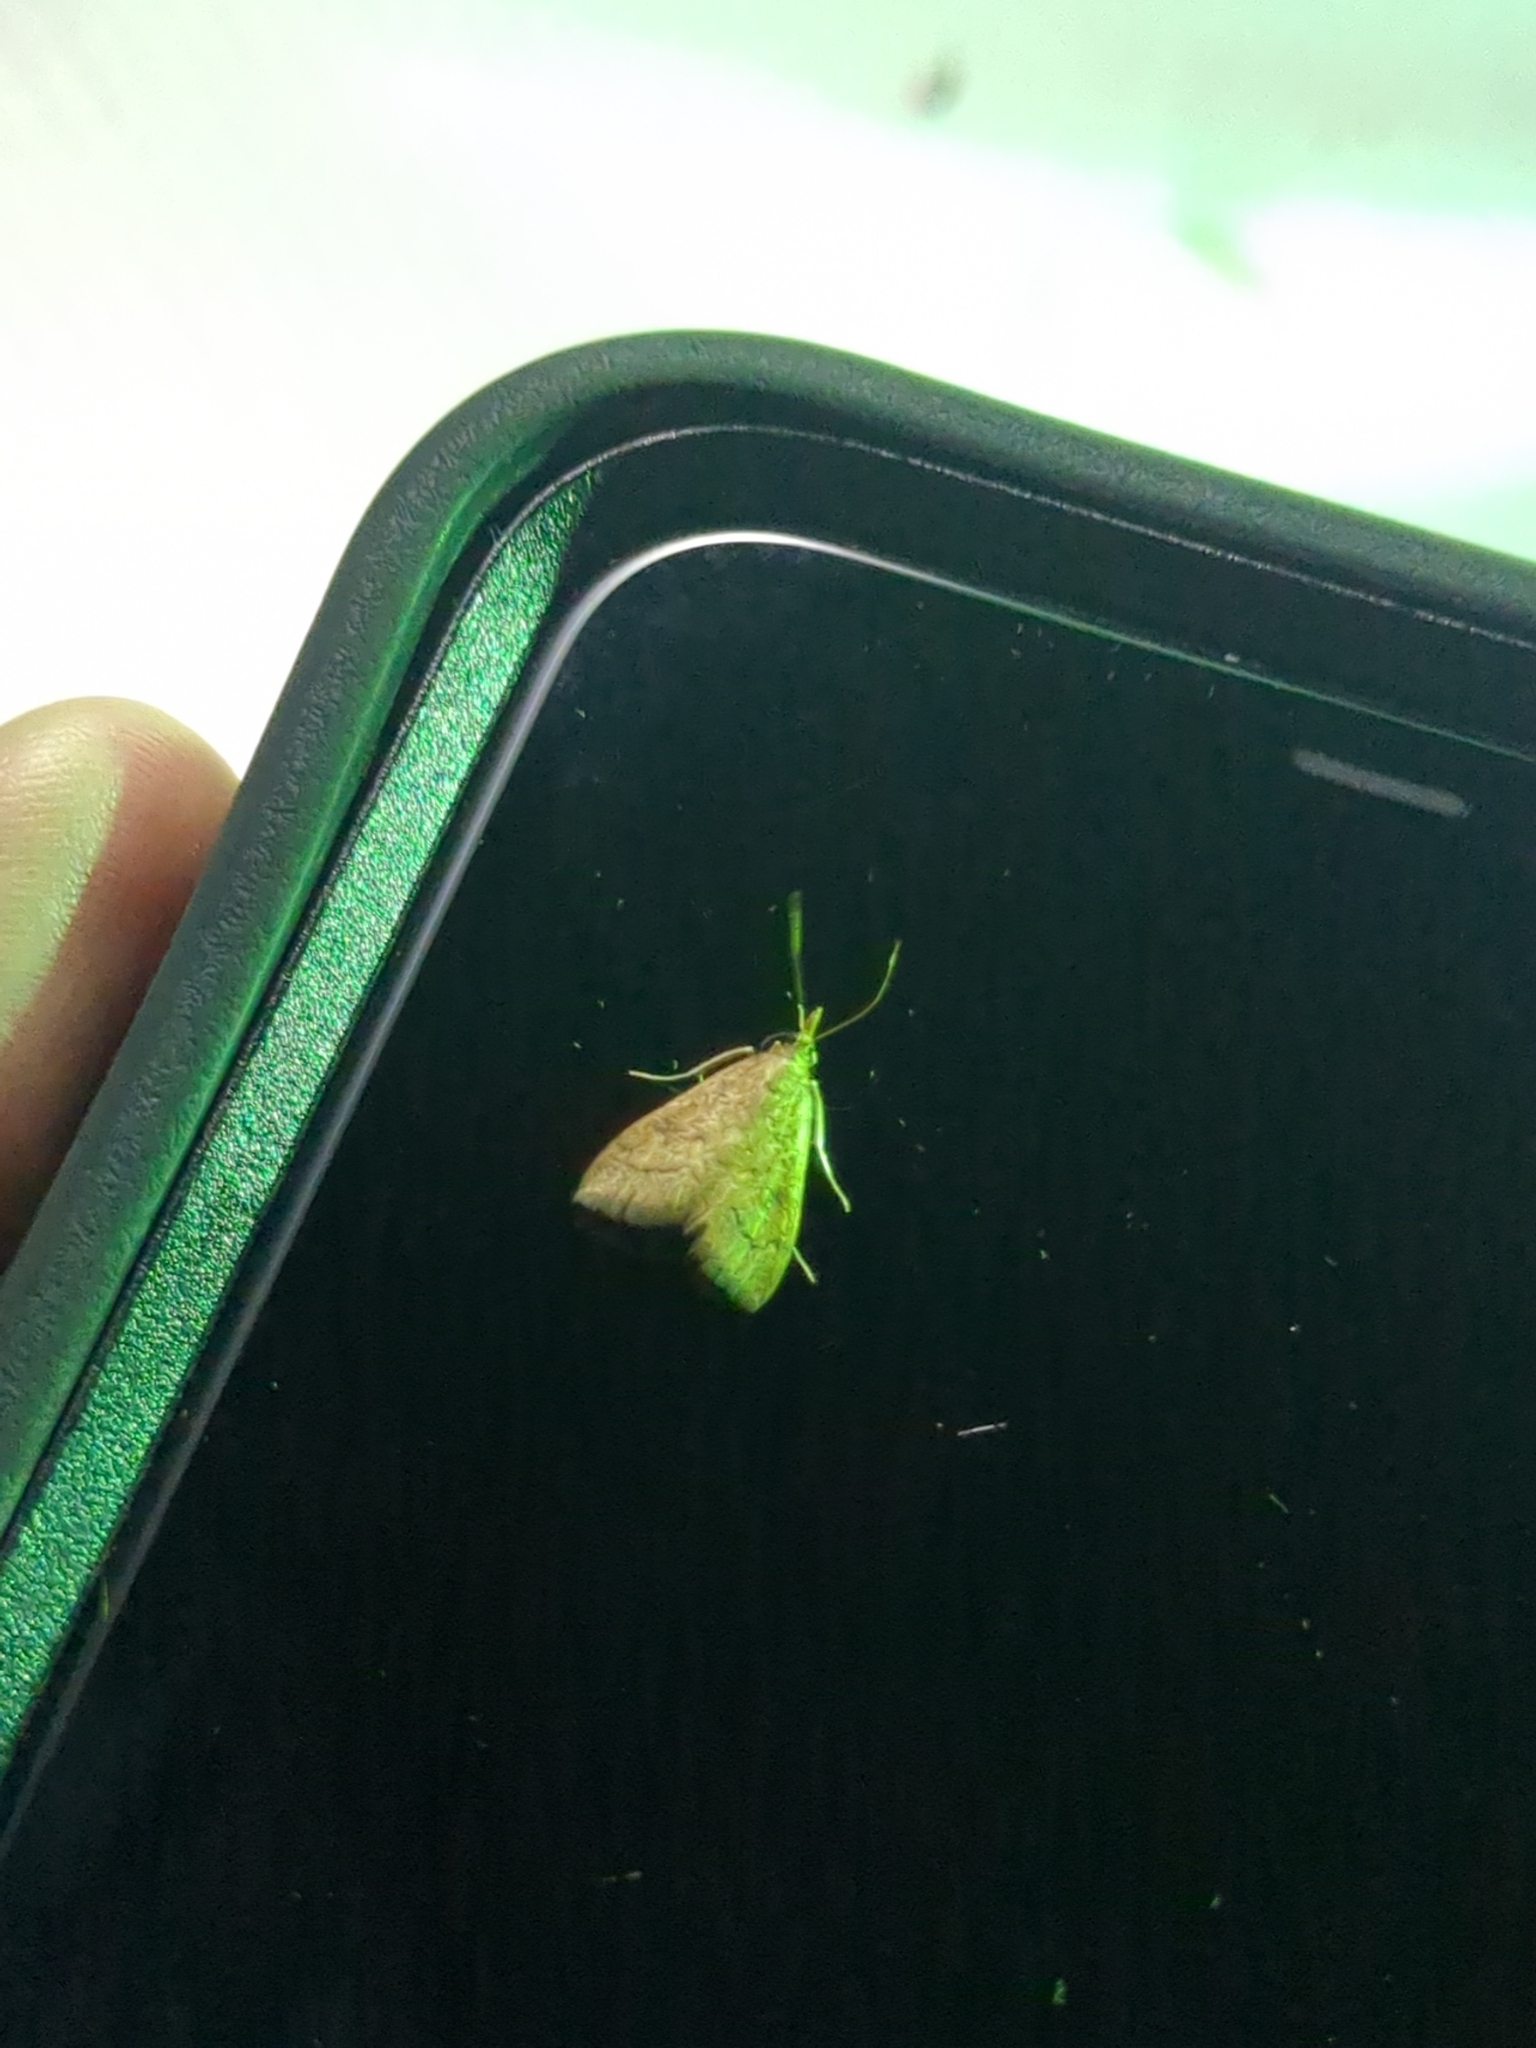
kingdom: Animalia
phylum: Arthropoda
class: Insecta
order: Lepidoptera
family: Crambidae
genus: Udea
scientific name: Udea rubigalis
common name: Celery leaftier moth
